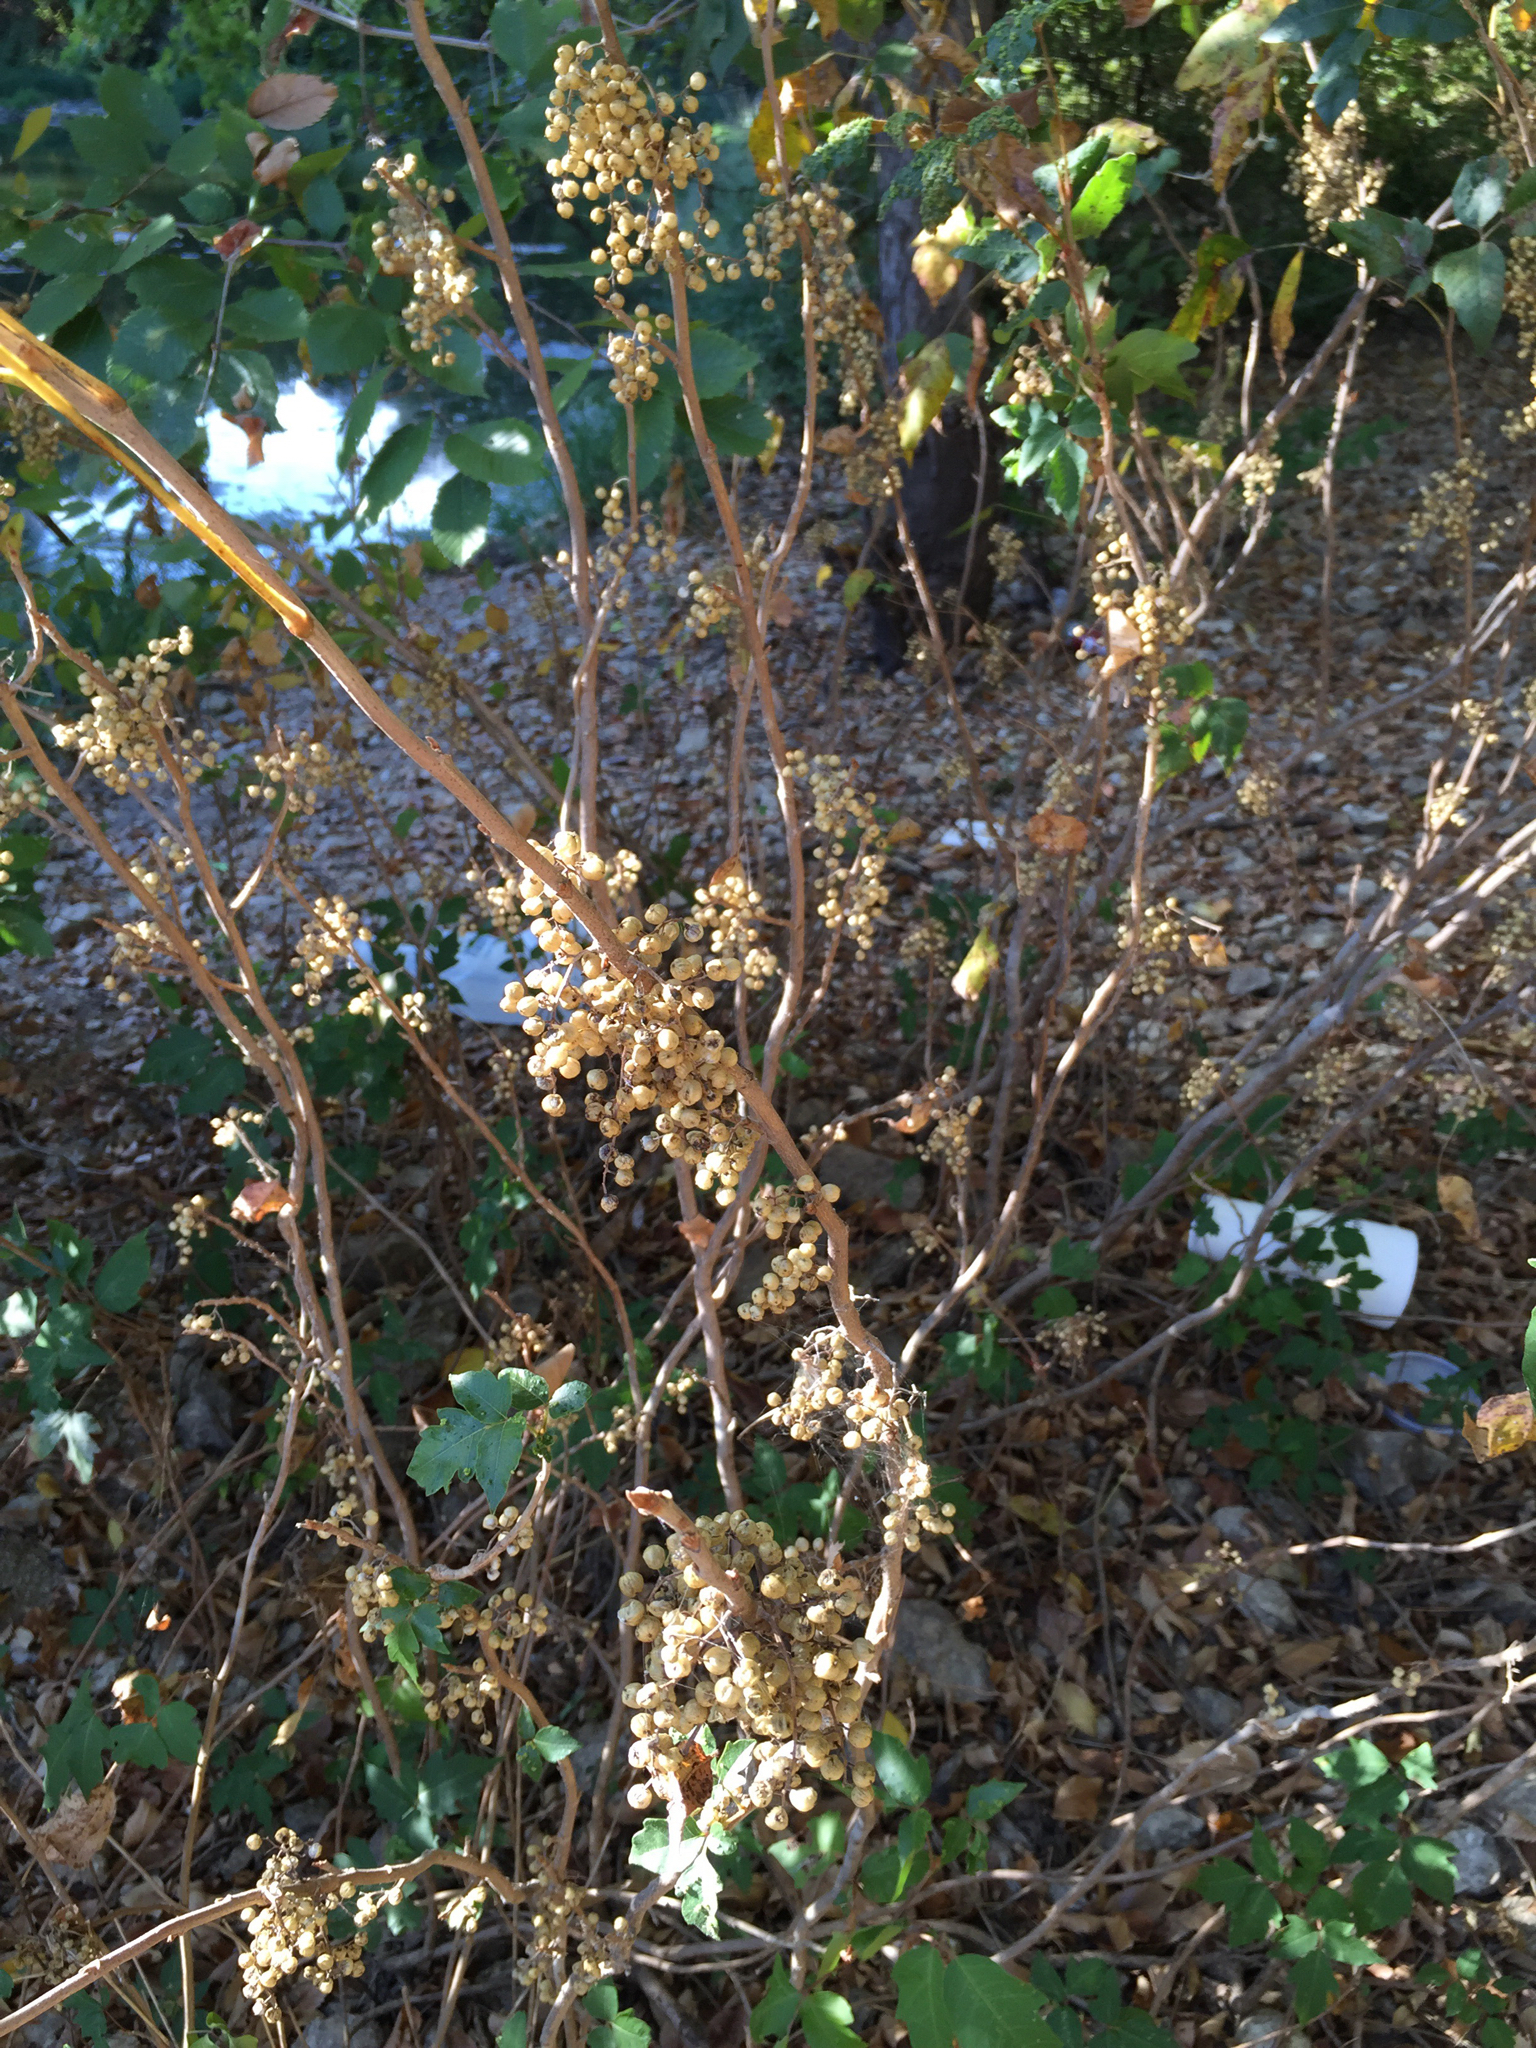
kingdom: Plantae
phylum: Tracheophyta
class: Magnoliopsida
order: Sapindales
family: Anacardiaceae
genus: Toxicodendron
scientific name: Toxicodendron radicans
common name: Poison ivy
